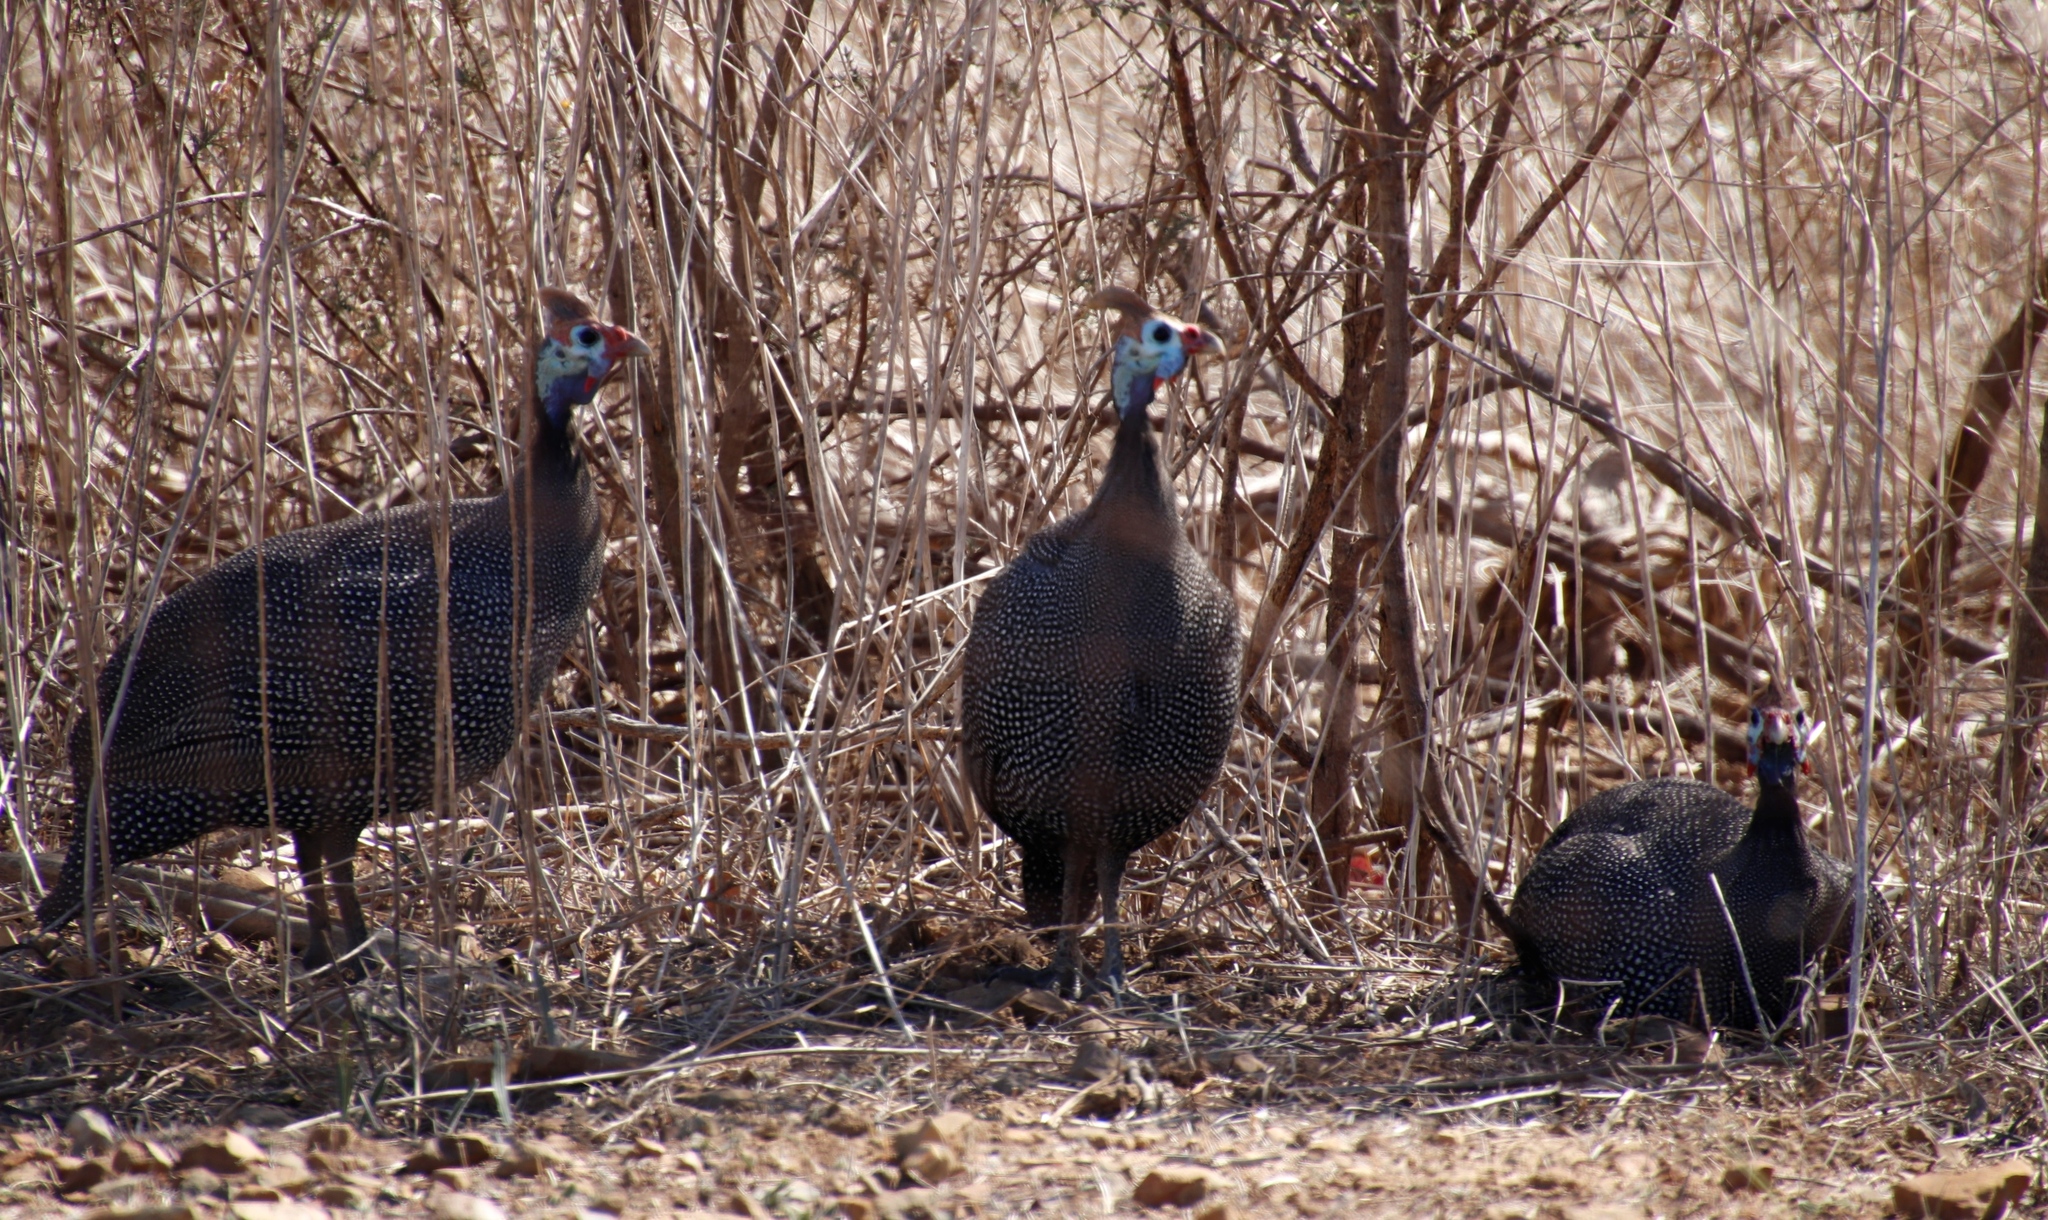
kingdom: Animalia
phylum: Chordata
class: Aves
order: Galliformes
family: Numididae
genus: Numida
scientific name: Numida meleagris
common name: Helmeted guineafowl
